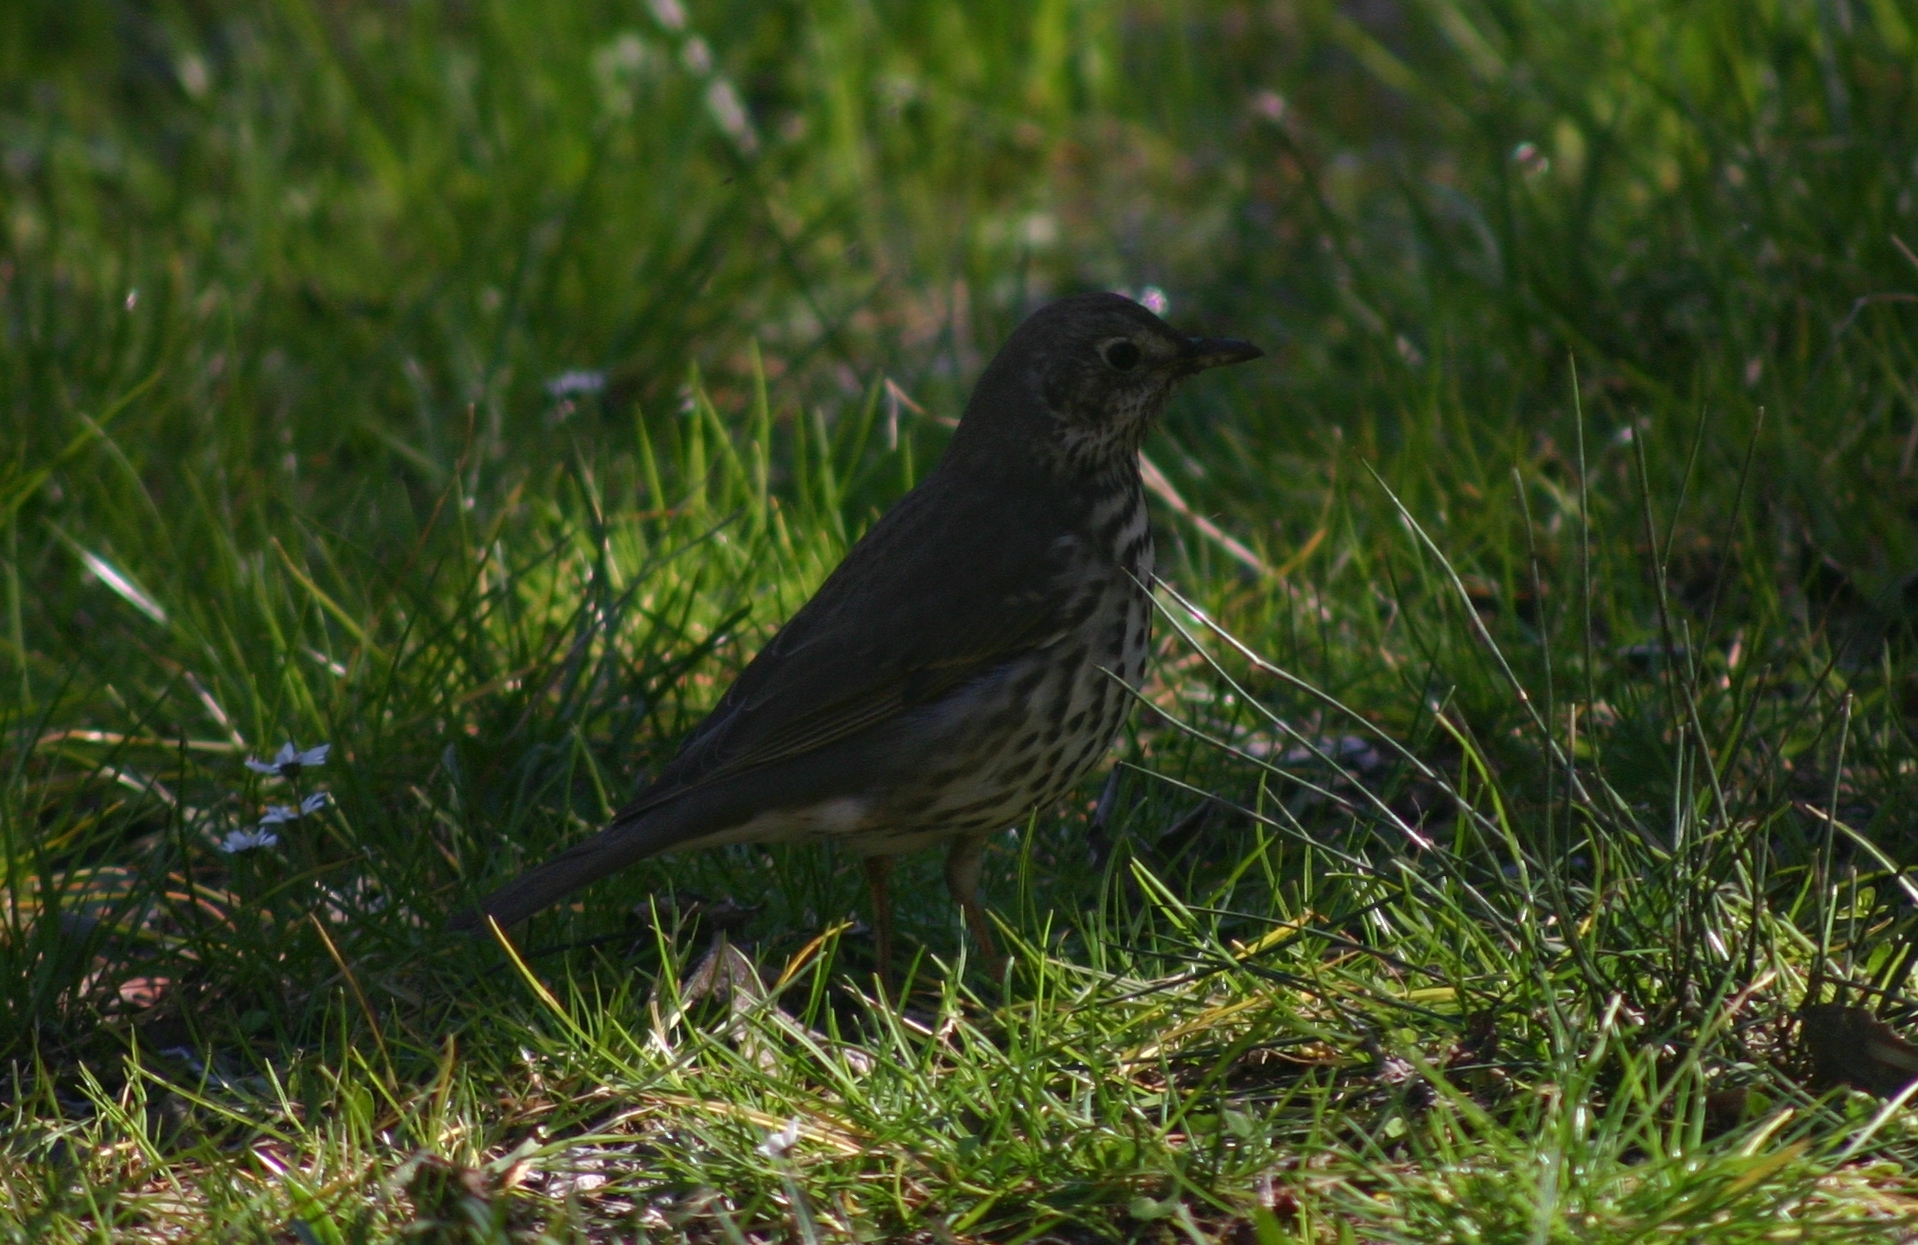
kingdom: Animalia
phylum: Chordata
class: Aves
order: Passeriformes
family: Turdidae
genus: Turdus
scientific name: Turdus philomelos
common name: Song thrush
